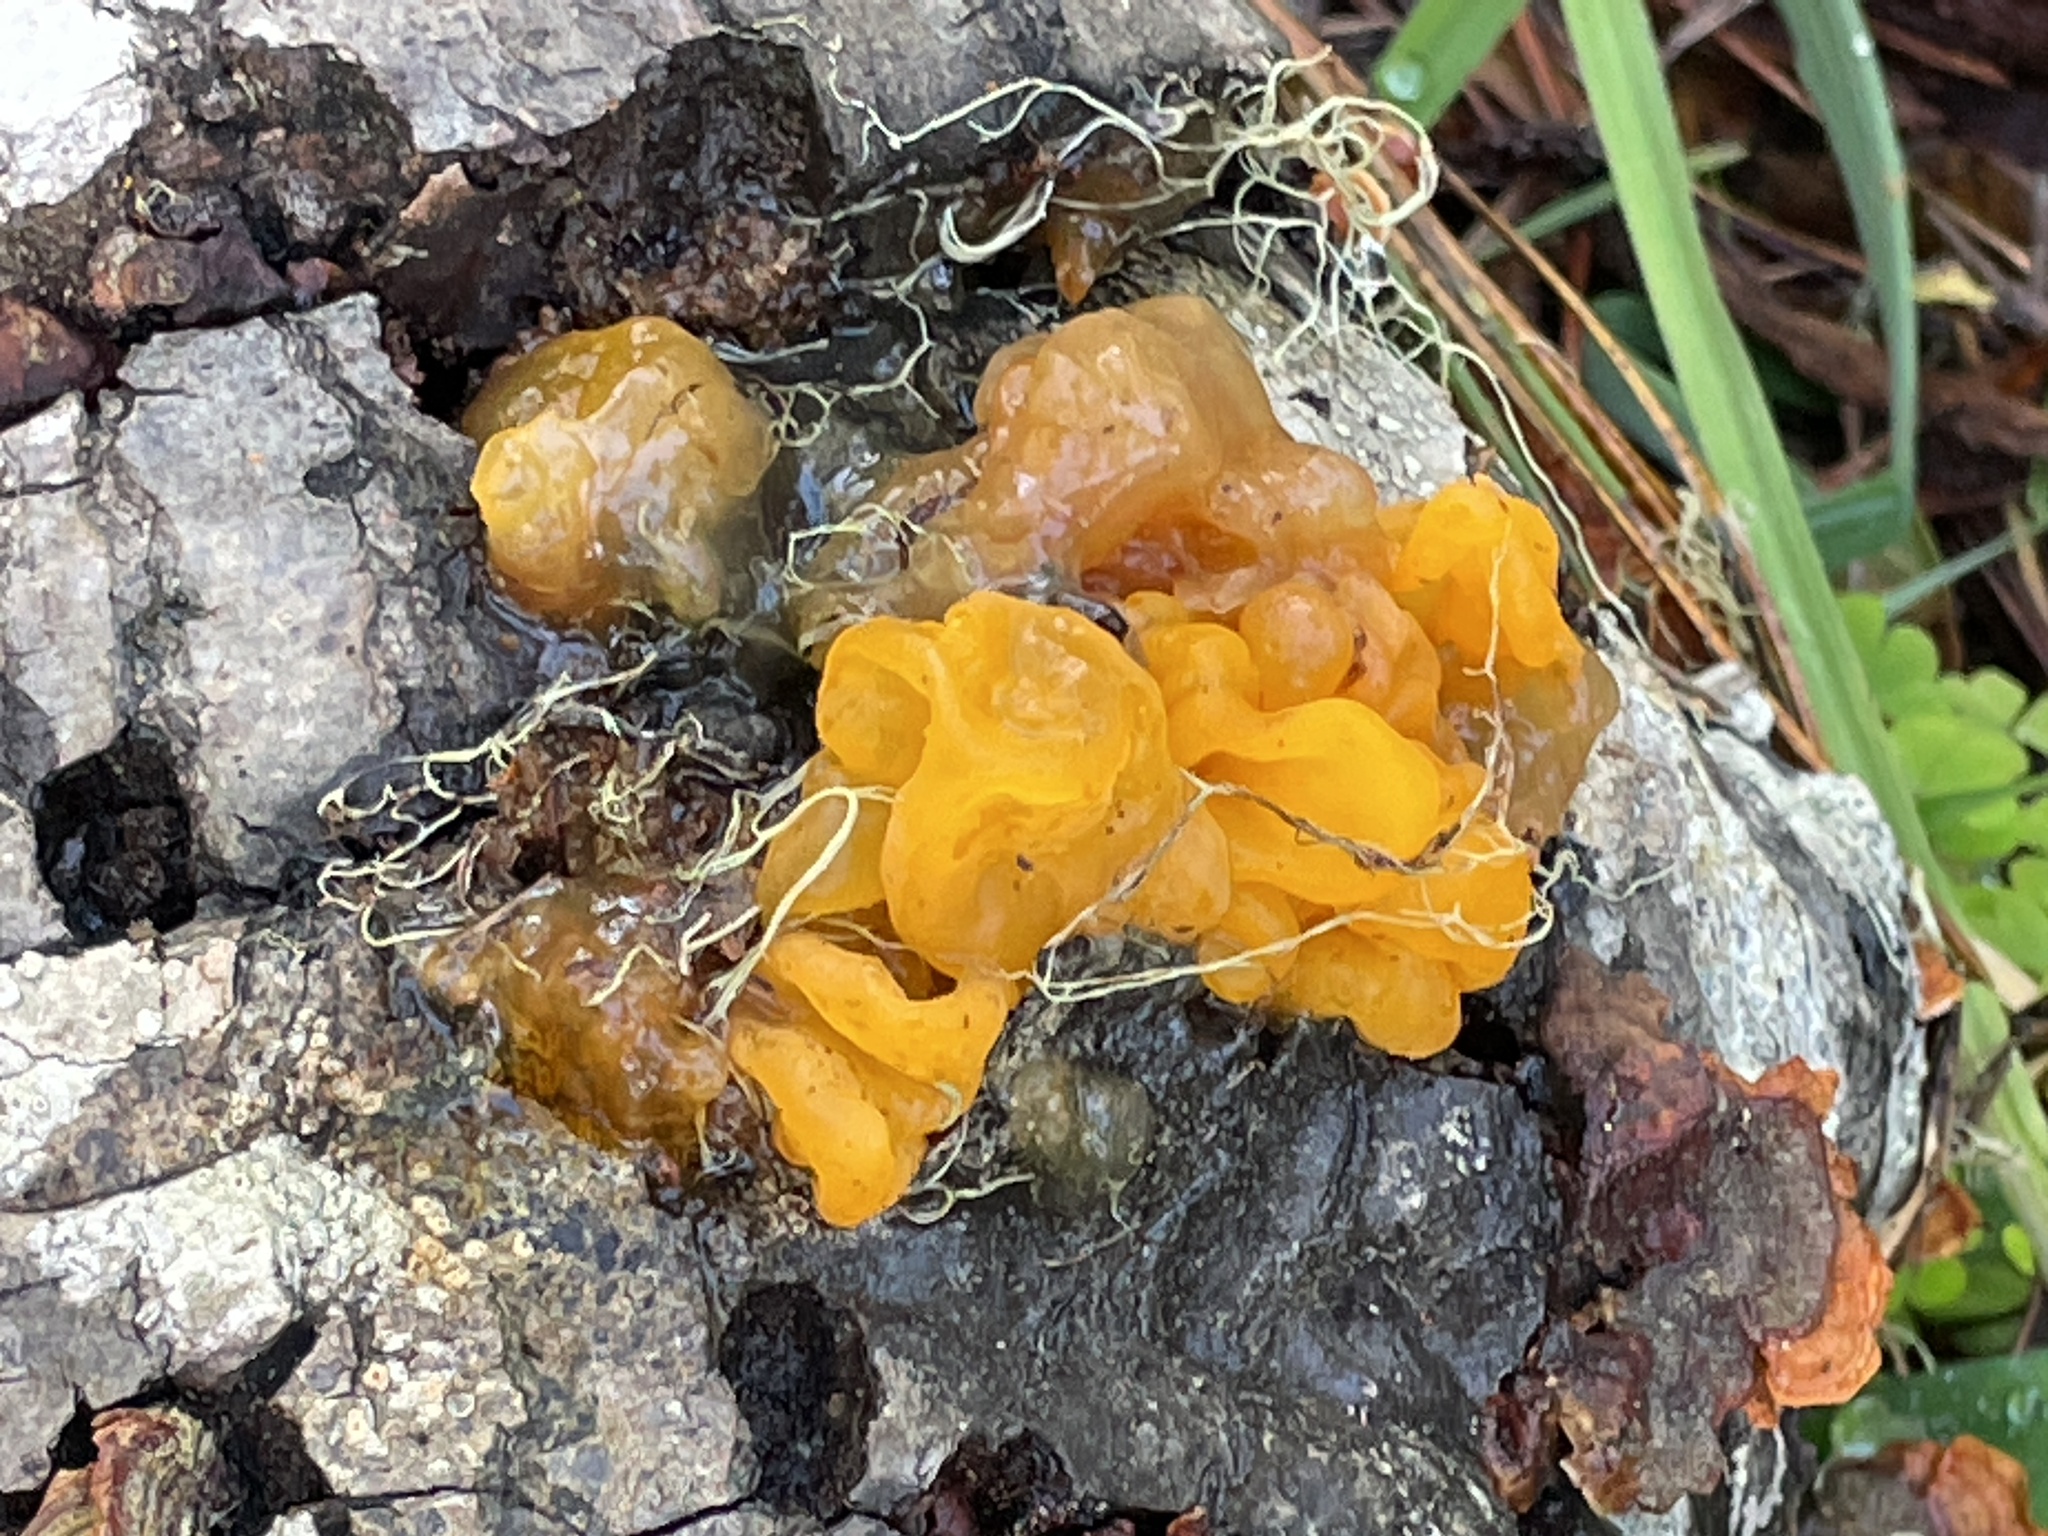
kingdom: Fungi
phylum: Basidiomycota
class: Tremellomycetes
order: Tremellales
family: Naemateliaceae
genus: Naematelia
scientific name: Naematelia aurantia
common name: Golden ear
